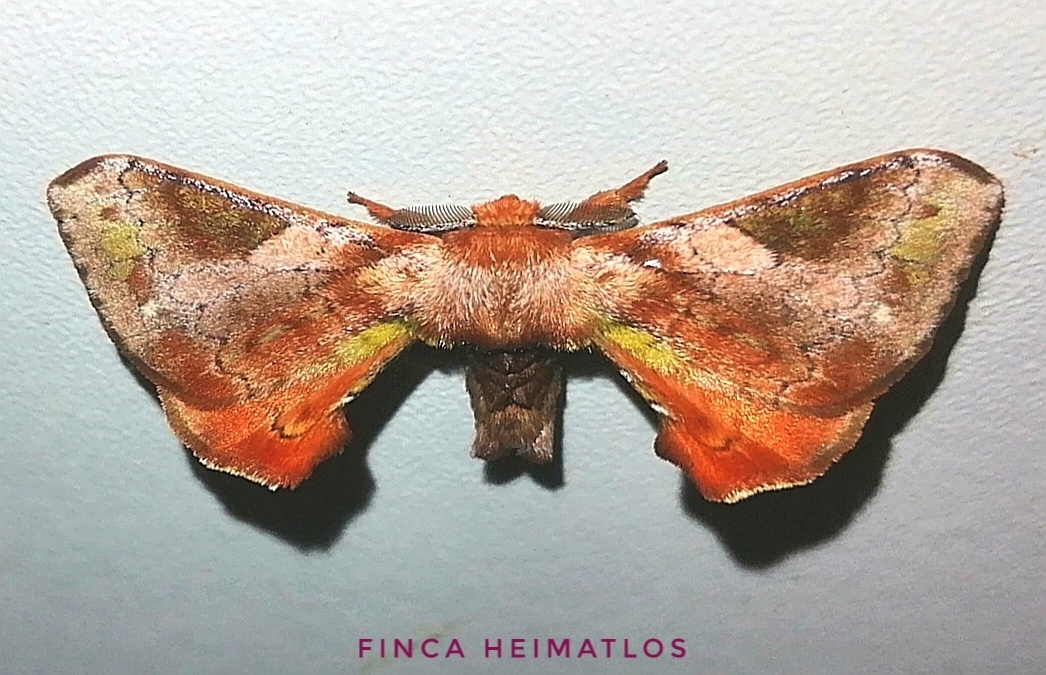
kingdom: Animalia
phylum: Arthropoda
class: Insecta
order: Lepidoptera
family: Bombycidae
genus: Epia
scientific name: Epia vulnerata
